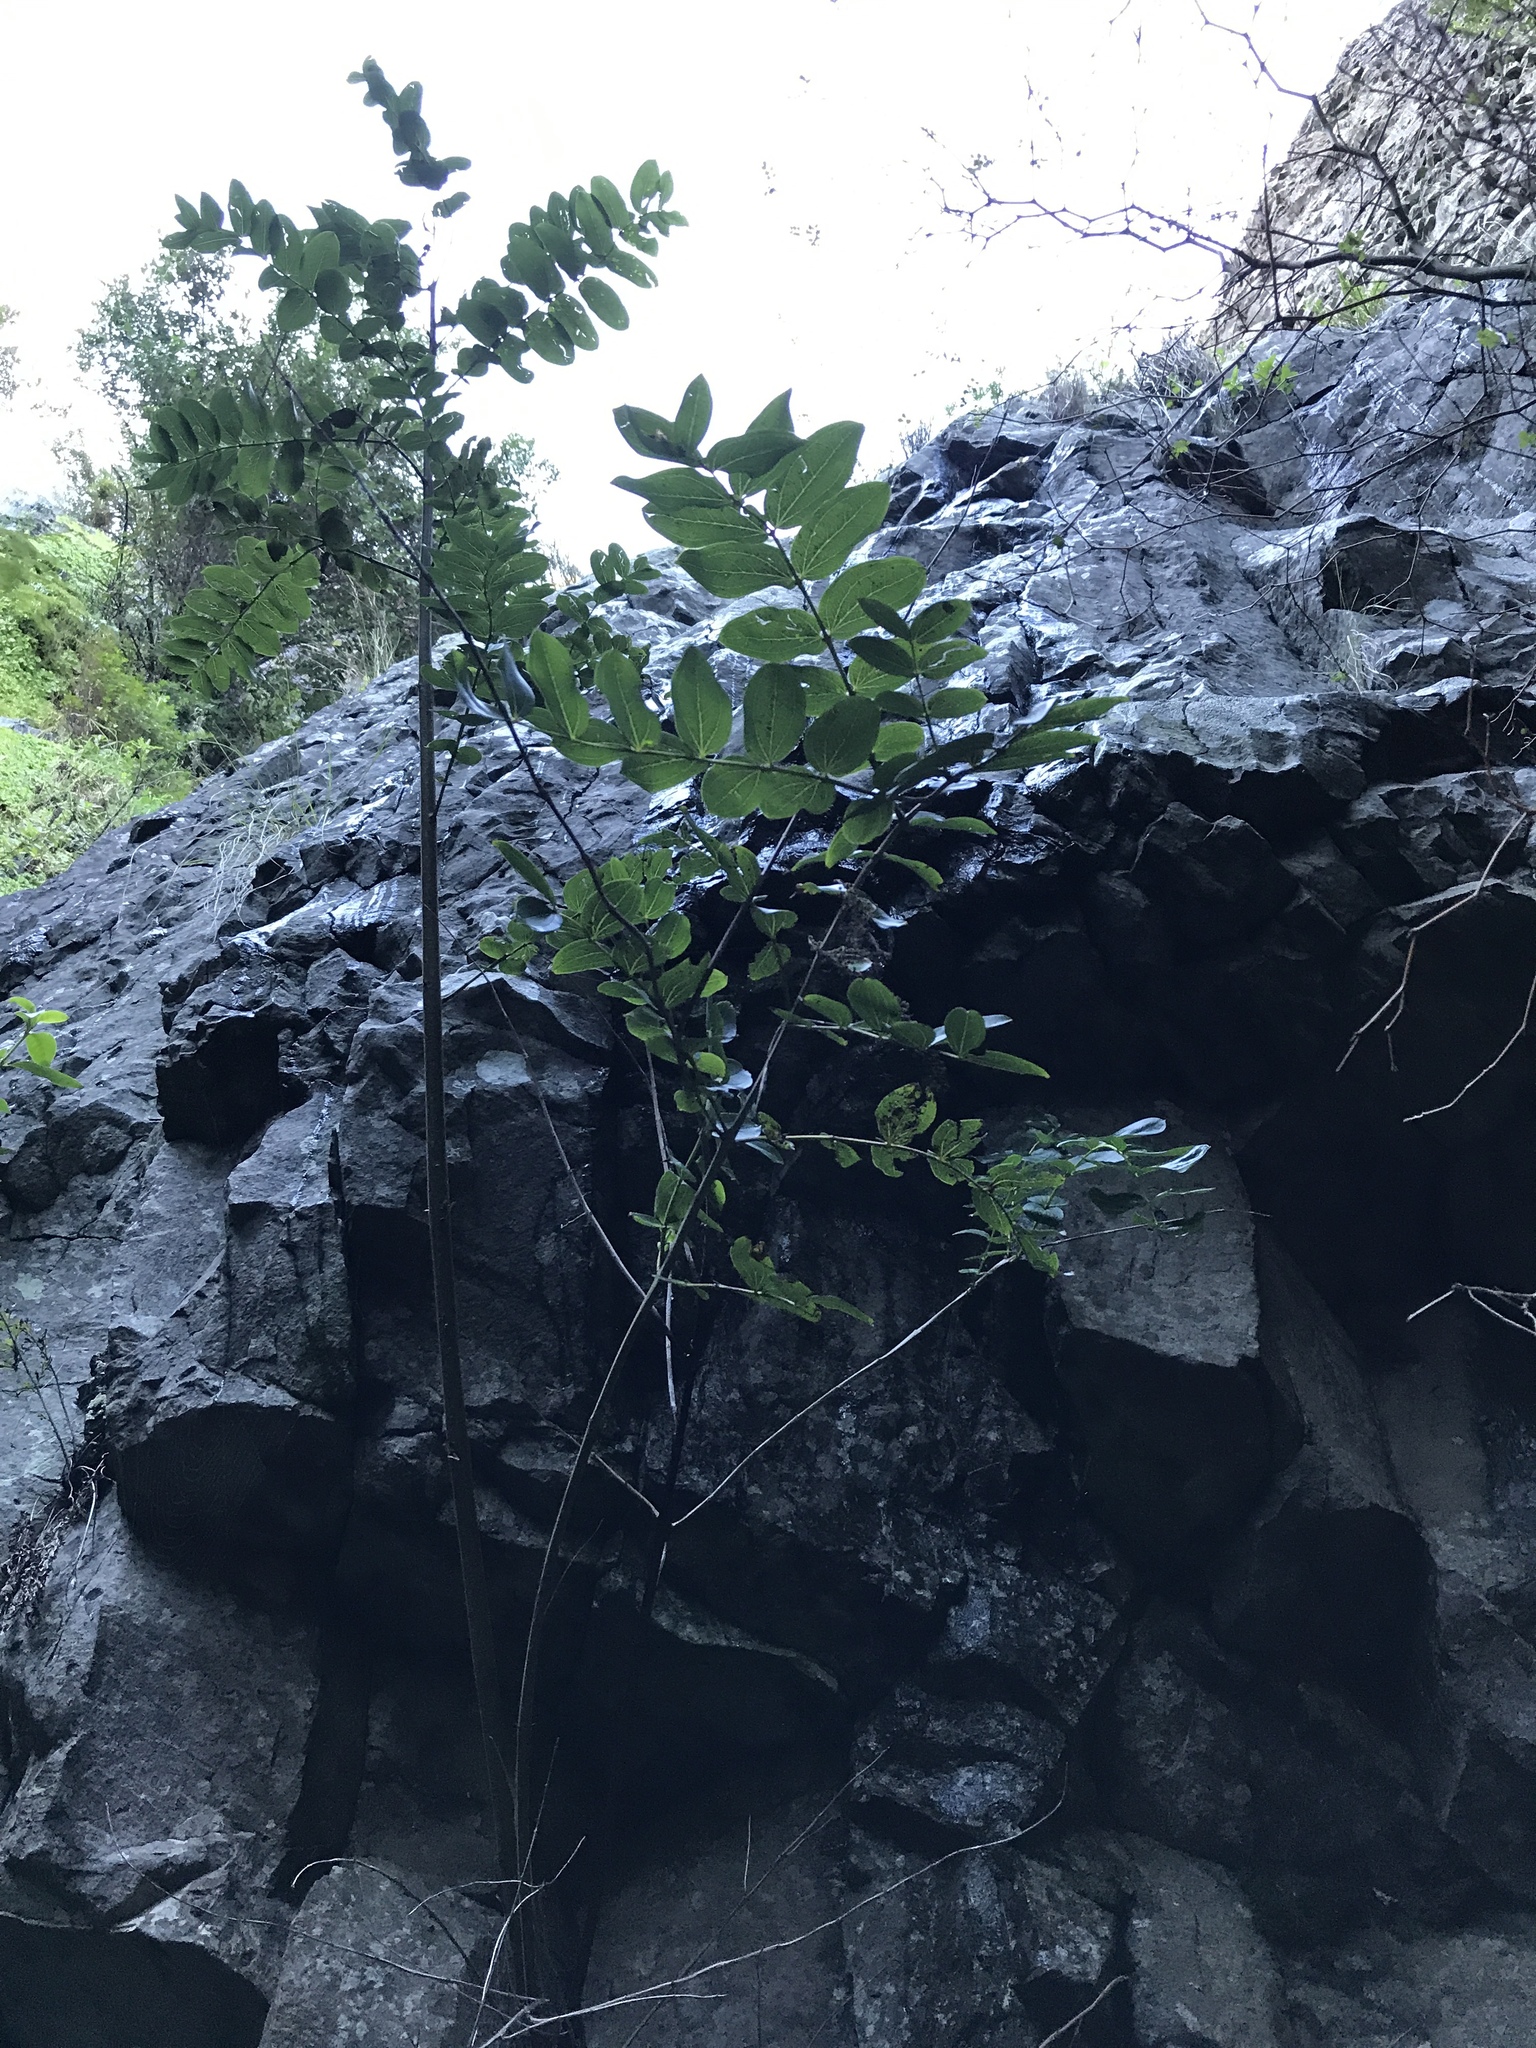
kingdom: Plantae
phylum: Tracheophyta
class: Magnoliopsida
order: Cucurbitales
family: Coriariaceae
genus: Coriaria
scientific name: Coriaria arborea
